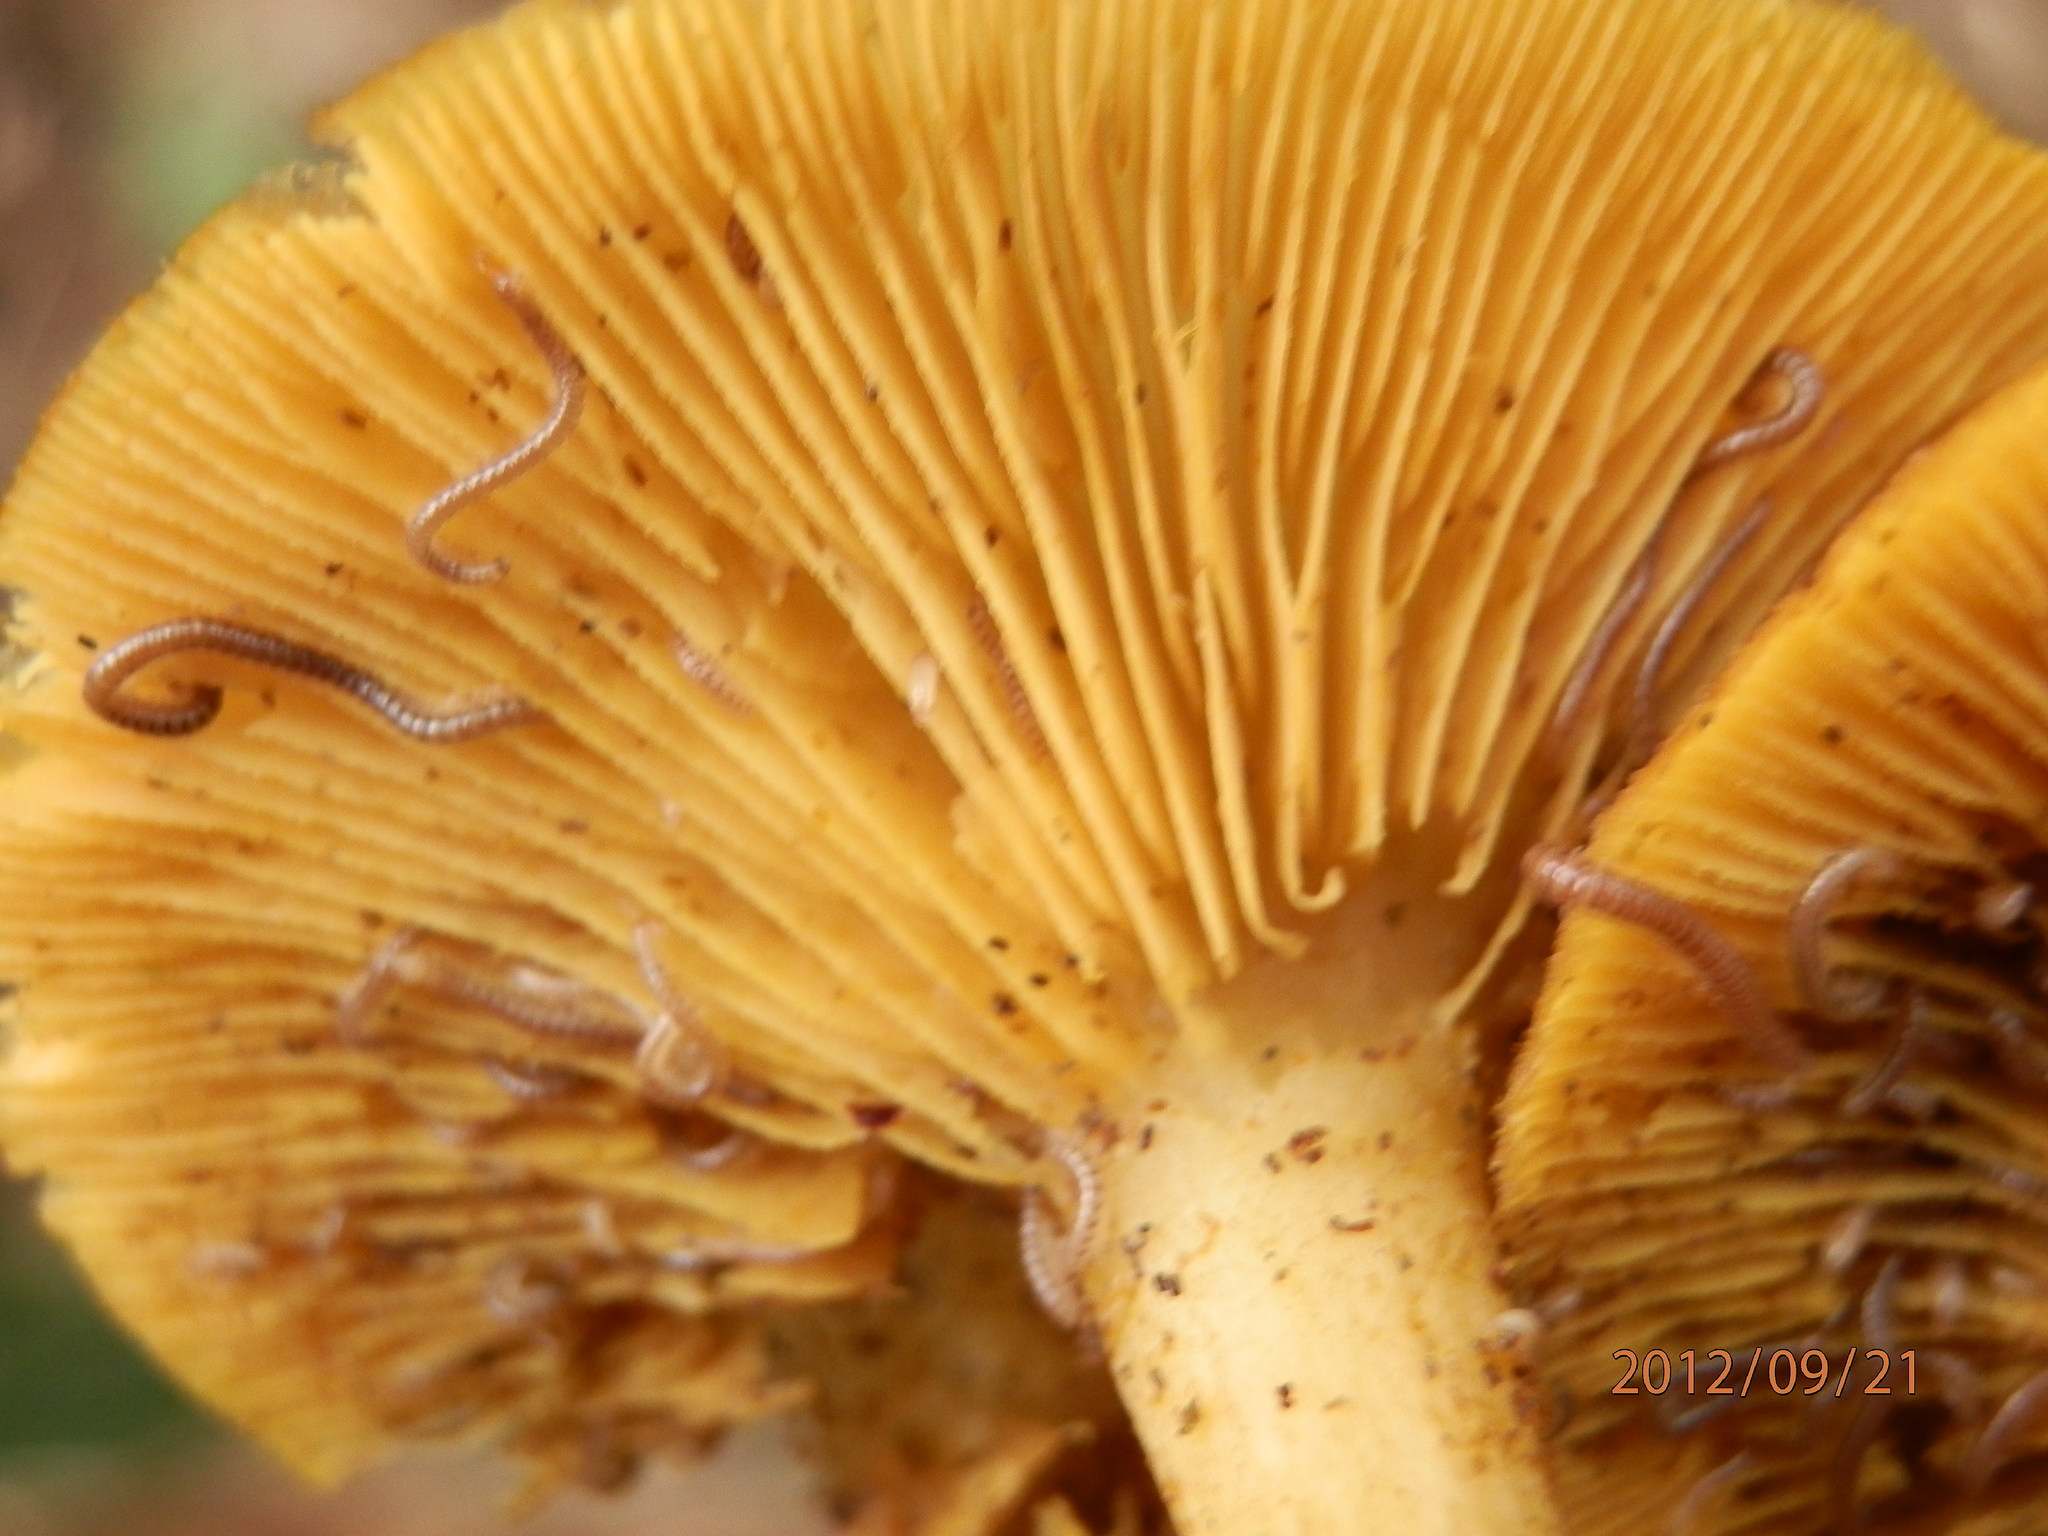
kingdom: Fungi
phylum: Basidiomycota
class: Agaricomycetes
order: Agaricales
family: Tricholomataceae
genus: Tricholomopsis
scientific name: Tricholomopsis decora
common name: Prunes and custard
